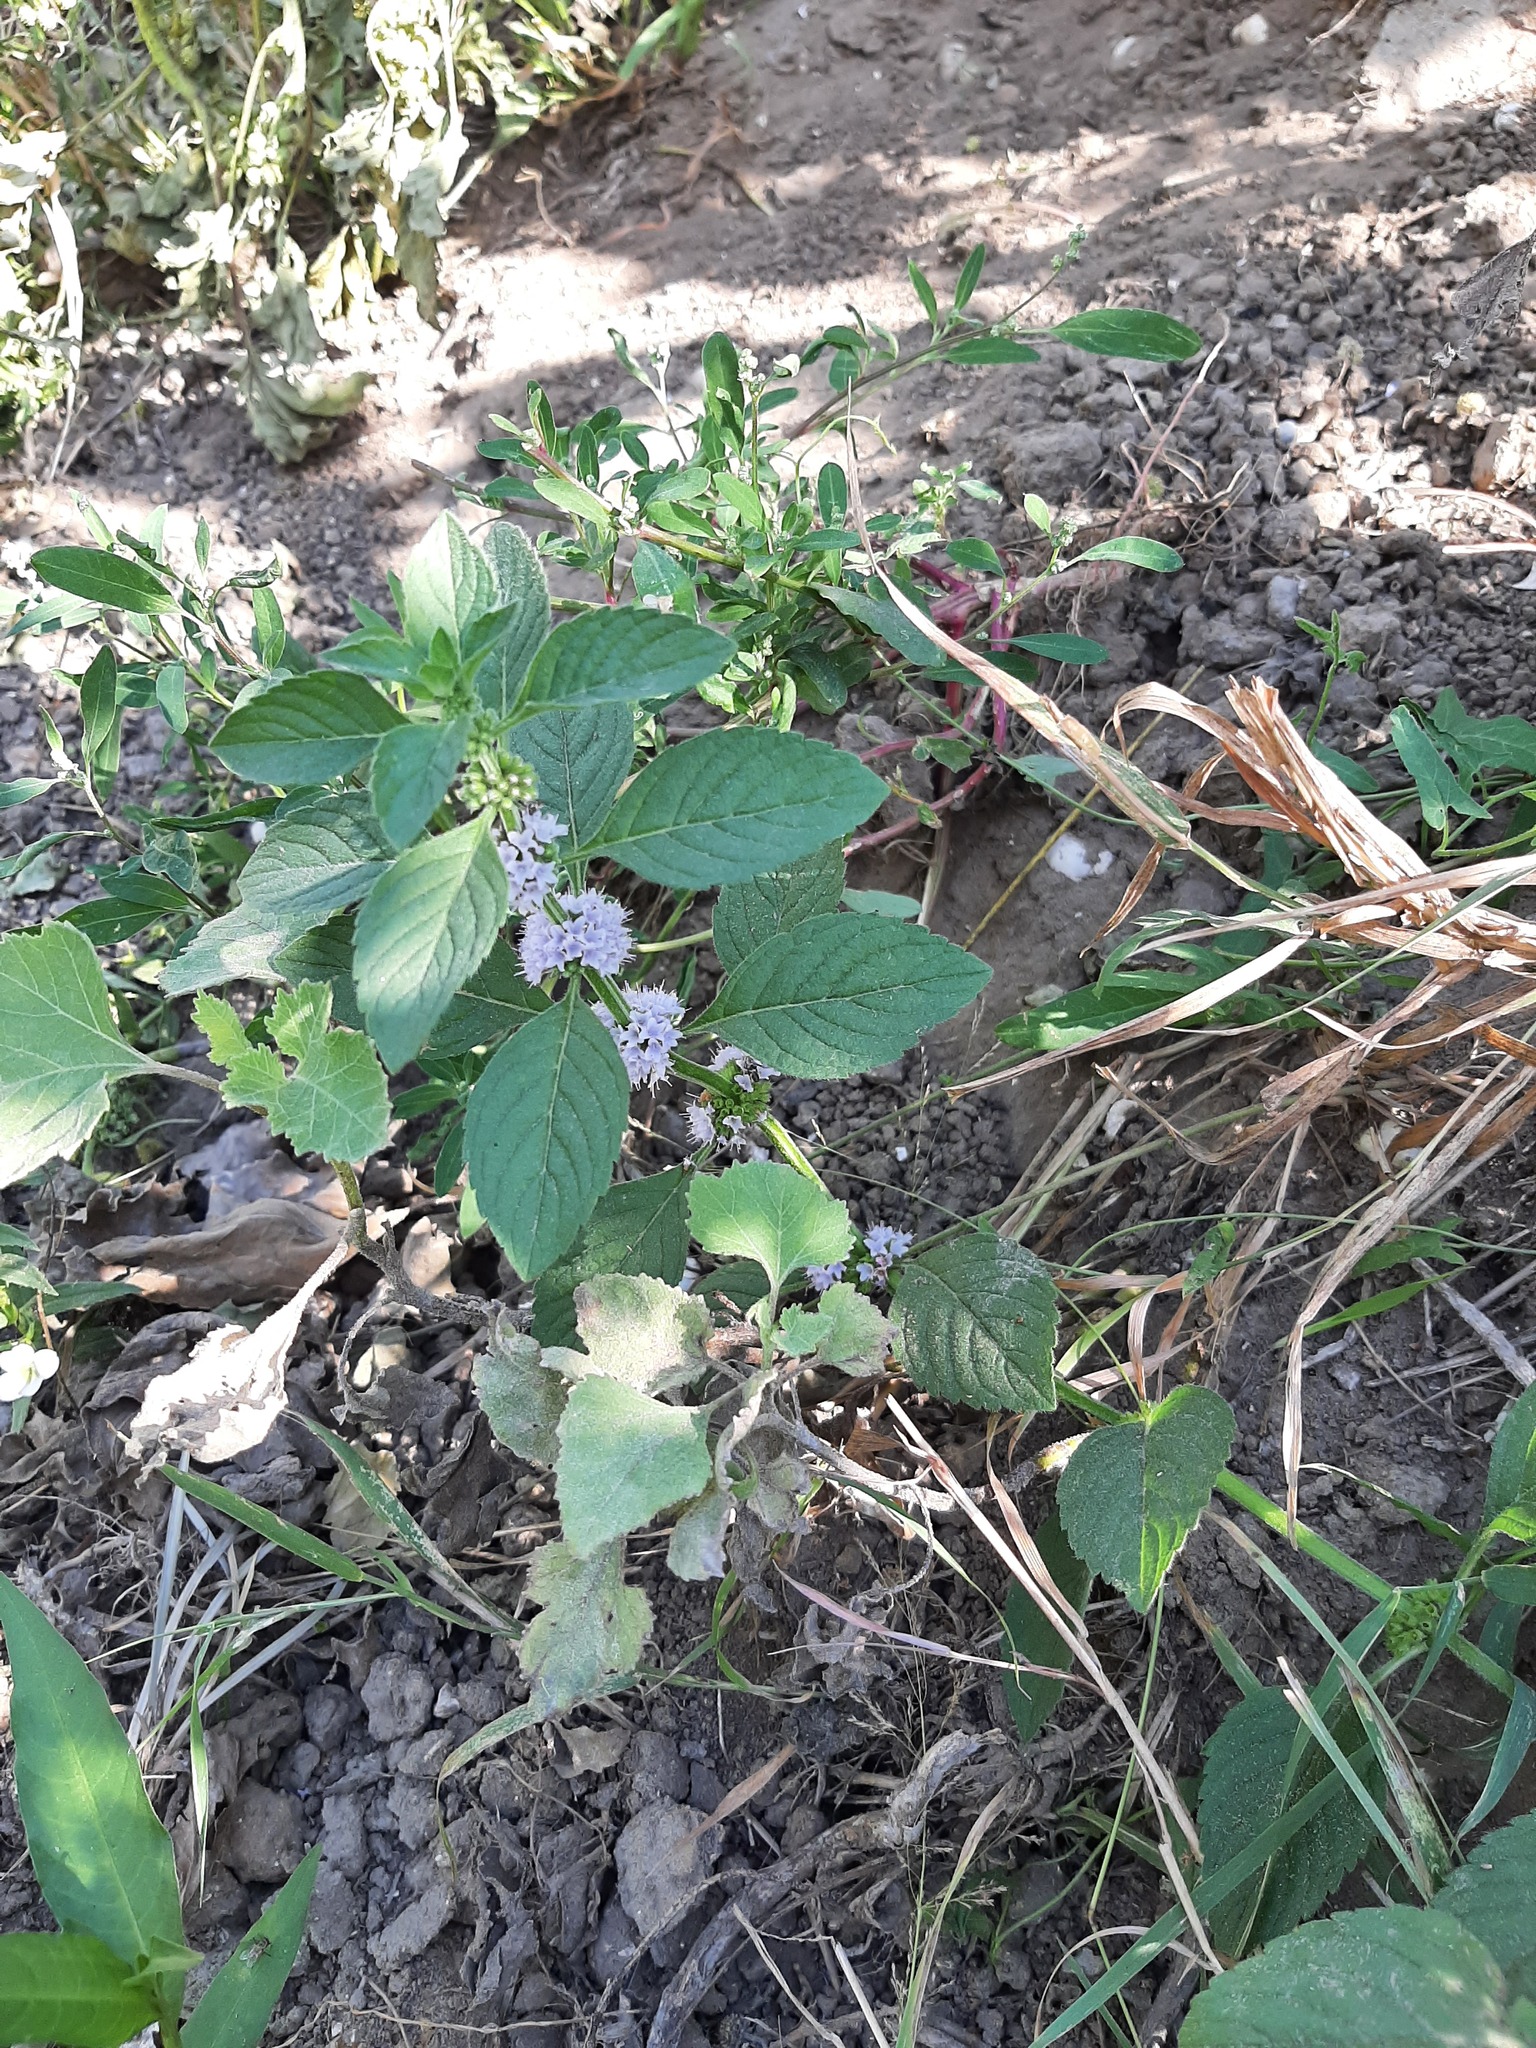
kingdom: Plantae
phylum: Tracheophyta
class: Magnoliopsida
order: Lamiales
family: Lamiaceae
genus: Mentha
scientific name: Mentha arvensis
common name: Corn mint
